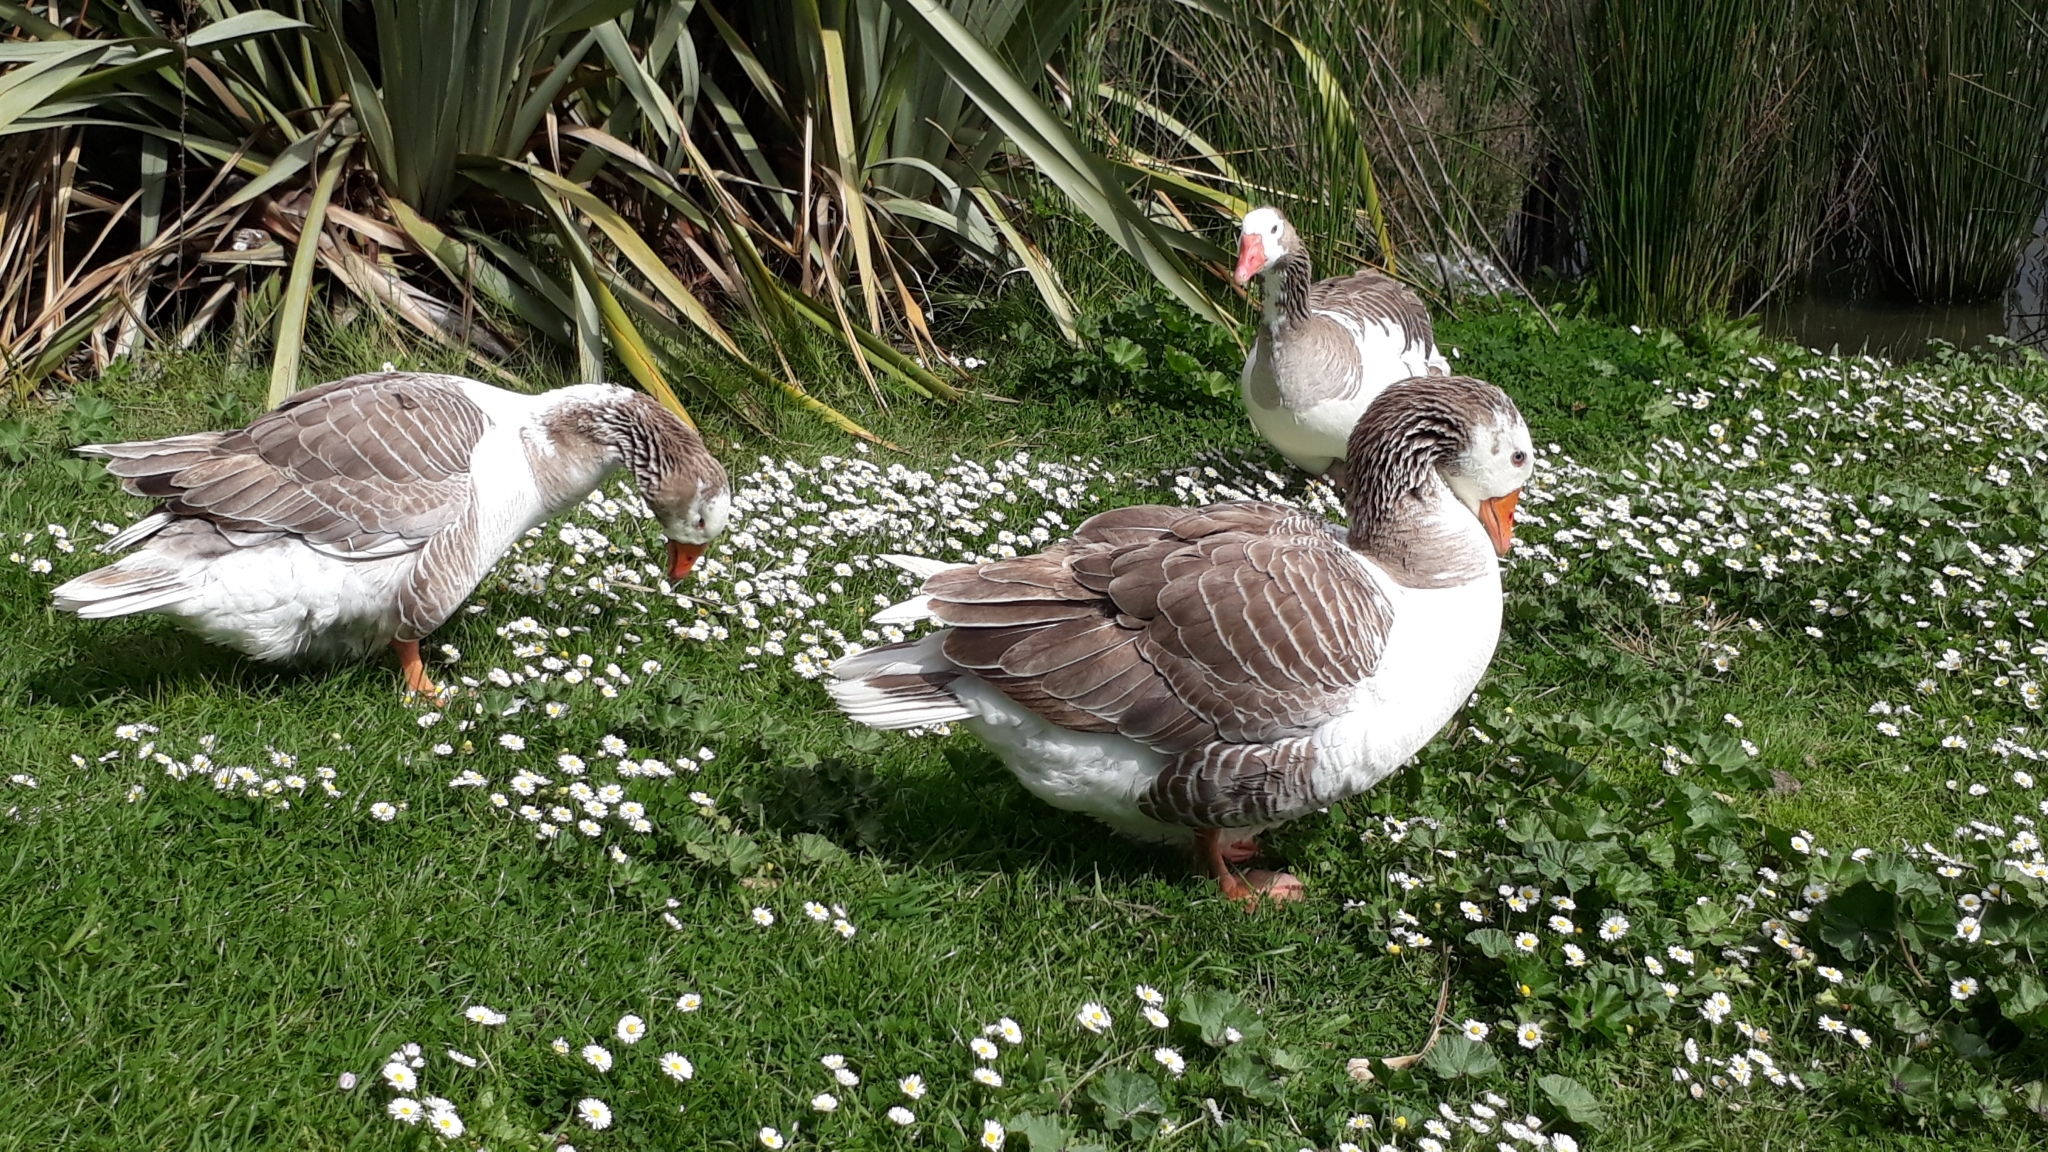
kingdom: Animalia
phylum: Chordata
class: Aves
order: Anseriformes
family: Anatidae
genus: Anser
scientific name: Anser anser
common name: Greylag goose
